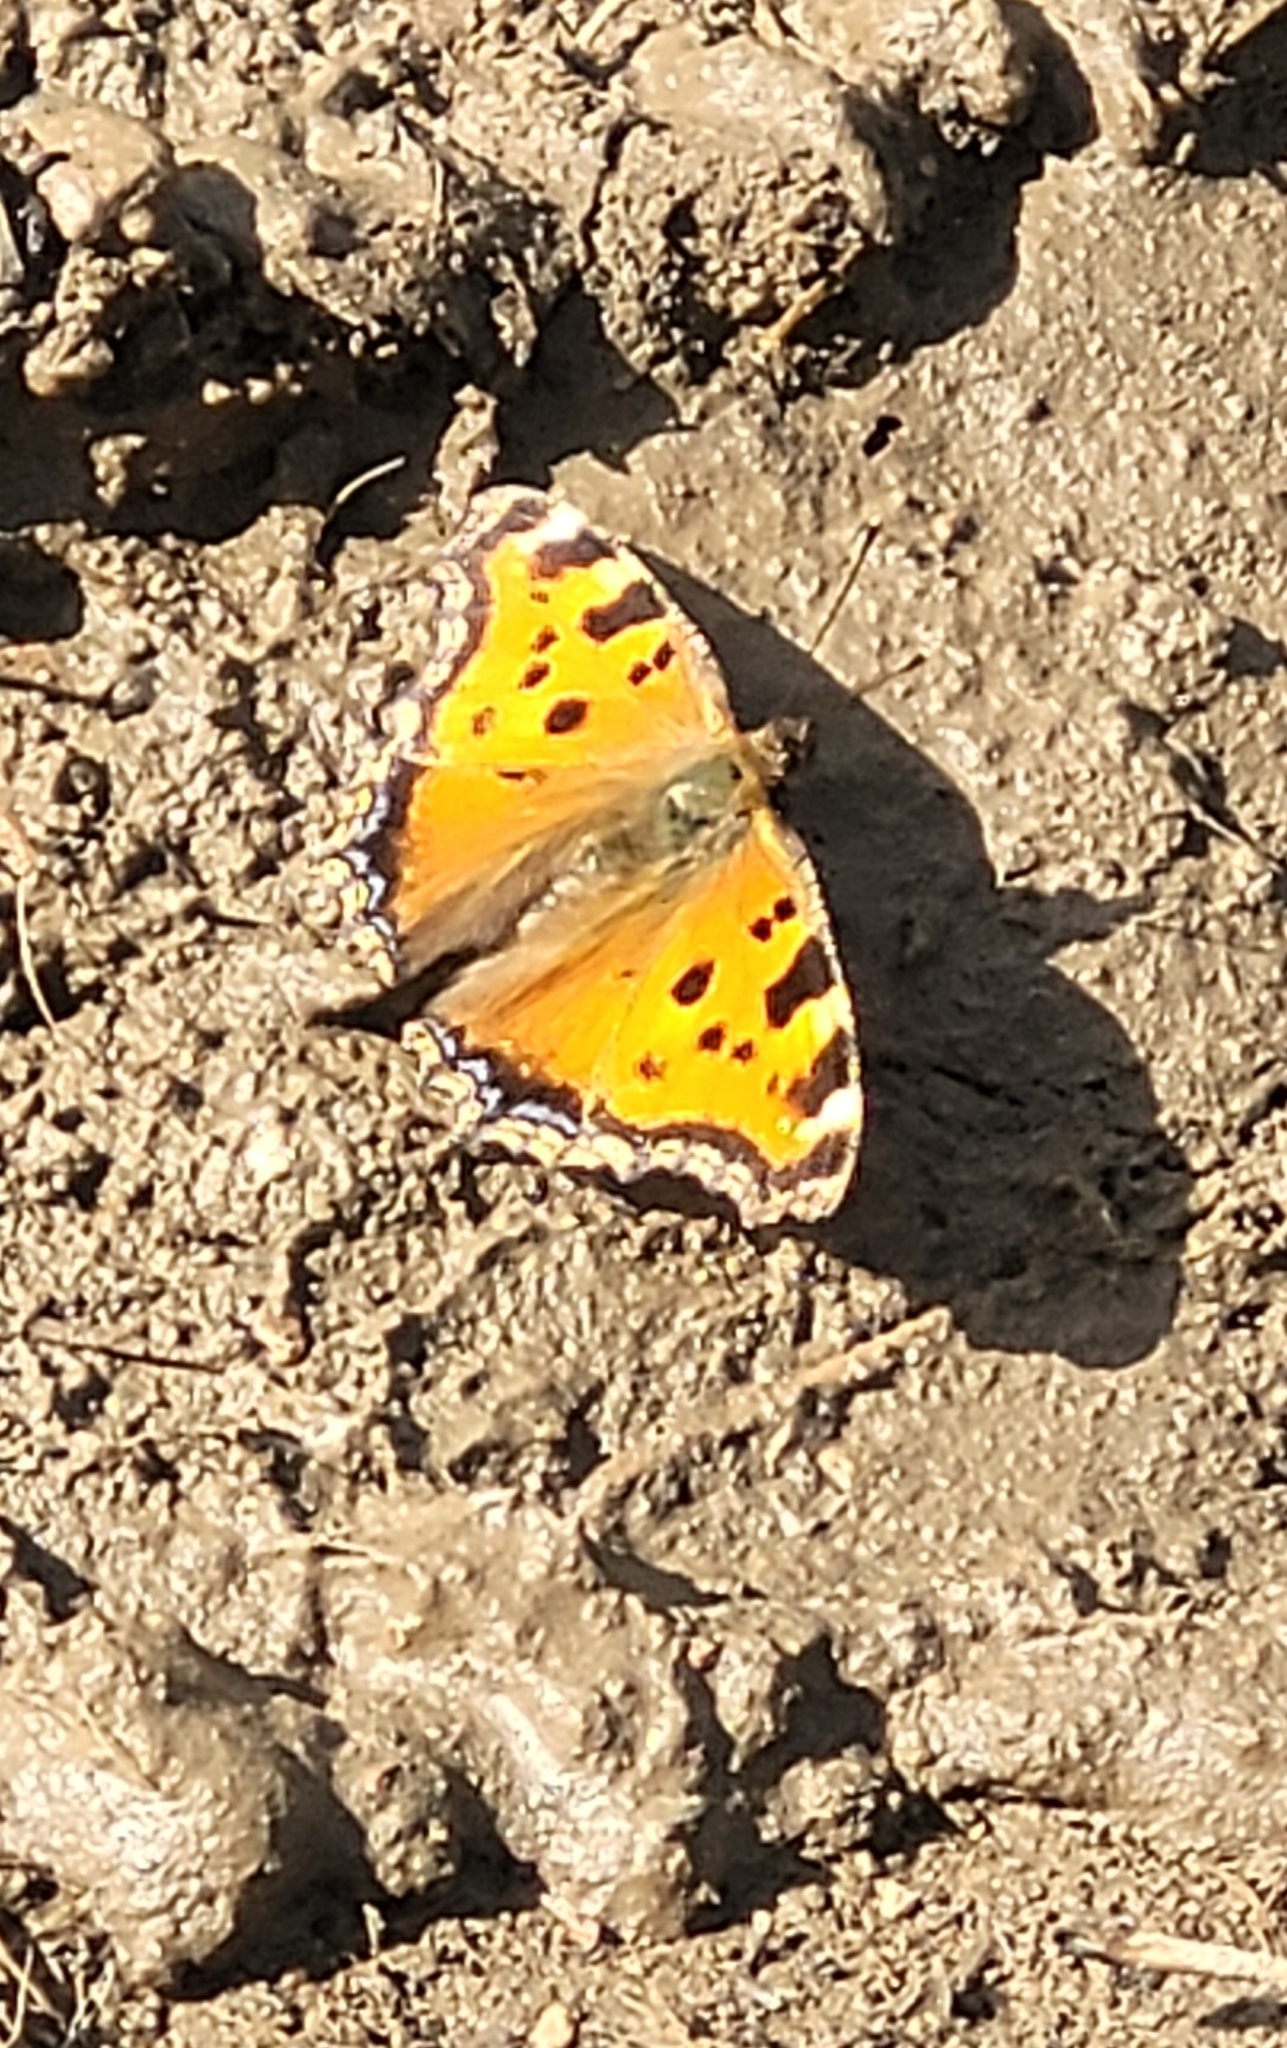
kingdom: Animalia
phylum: Arthropoda
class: Insecta
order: Lepidoptera
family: Nymphalidae
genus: Nymphalis
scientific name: Nymphalis xanthomelas
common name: Scarce tortoiseshell
